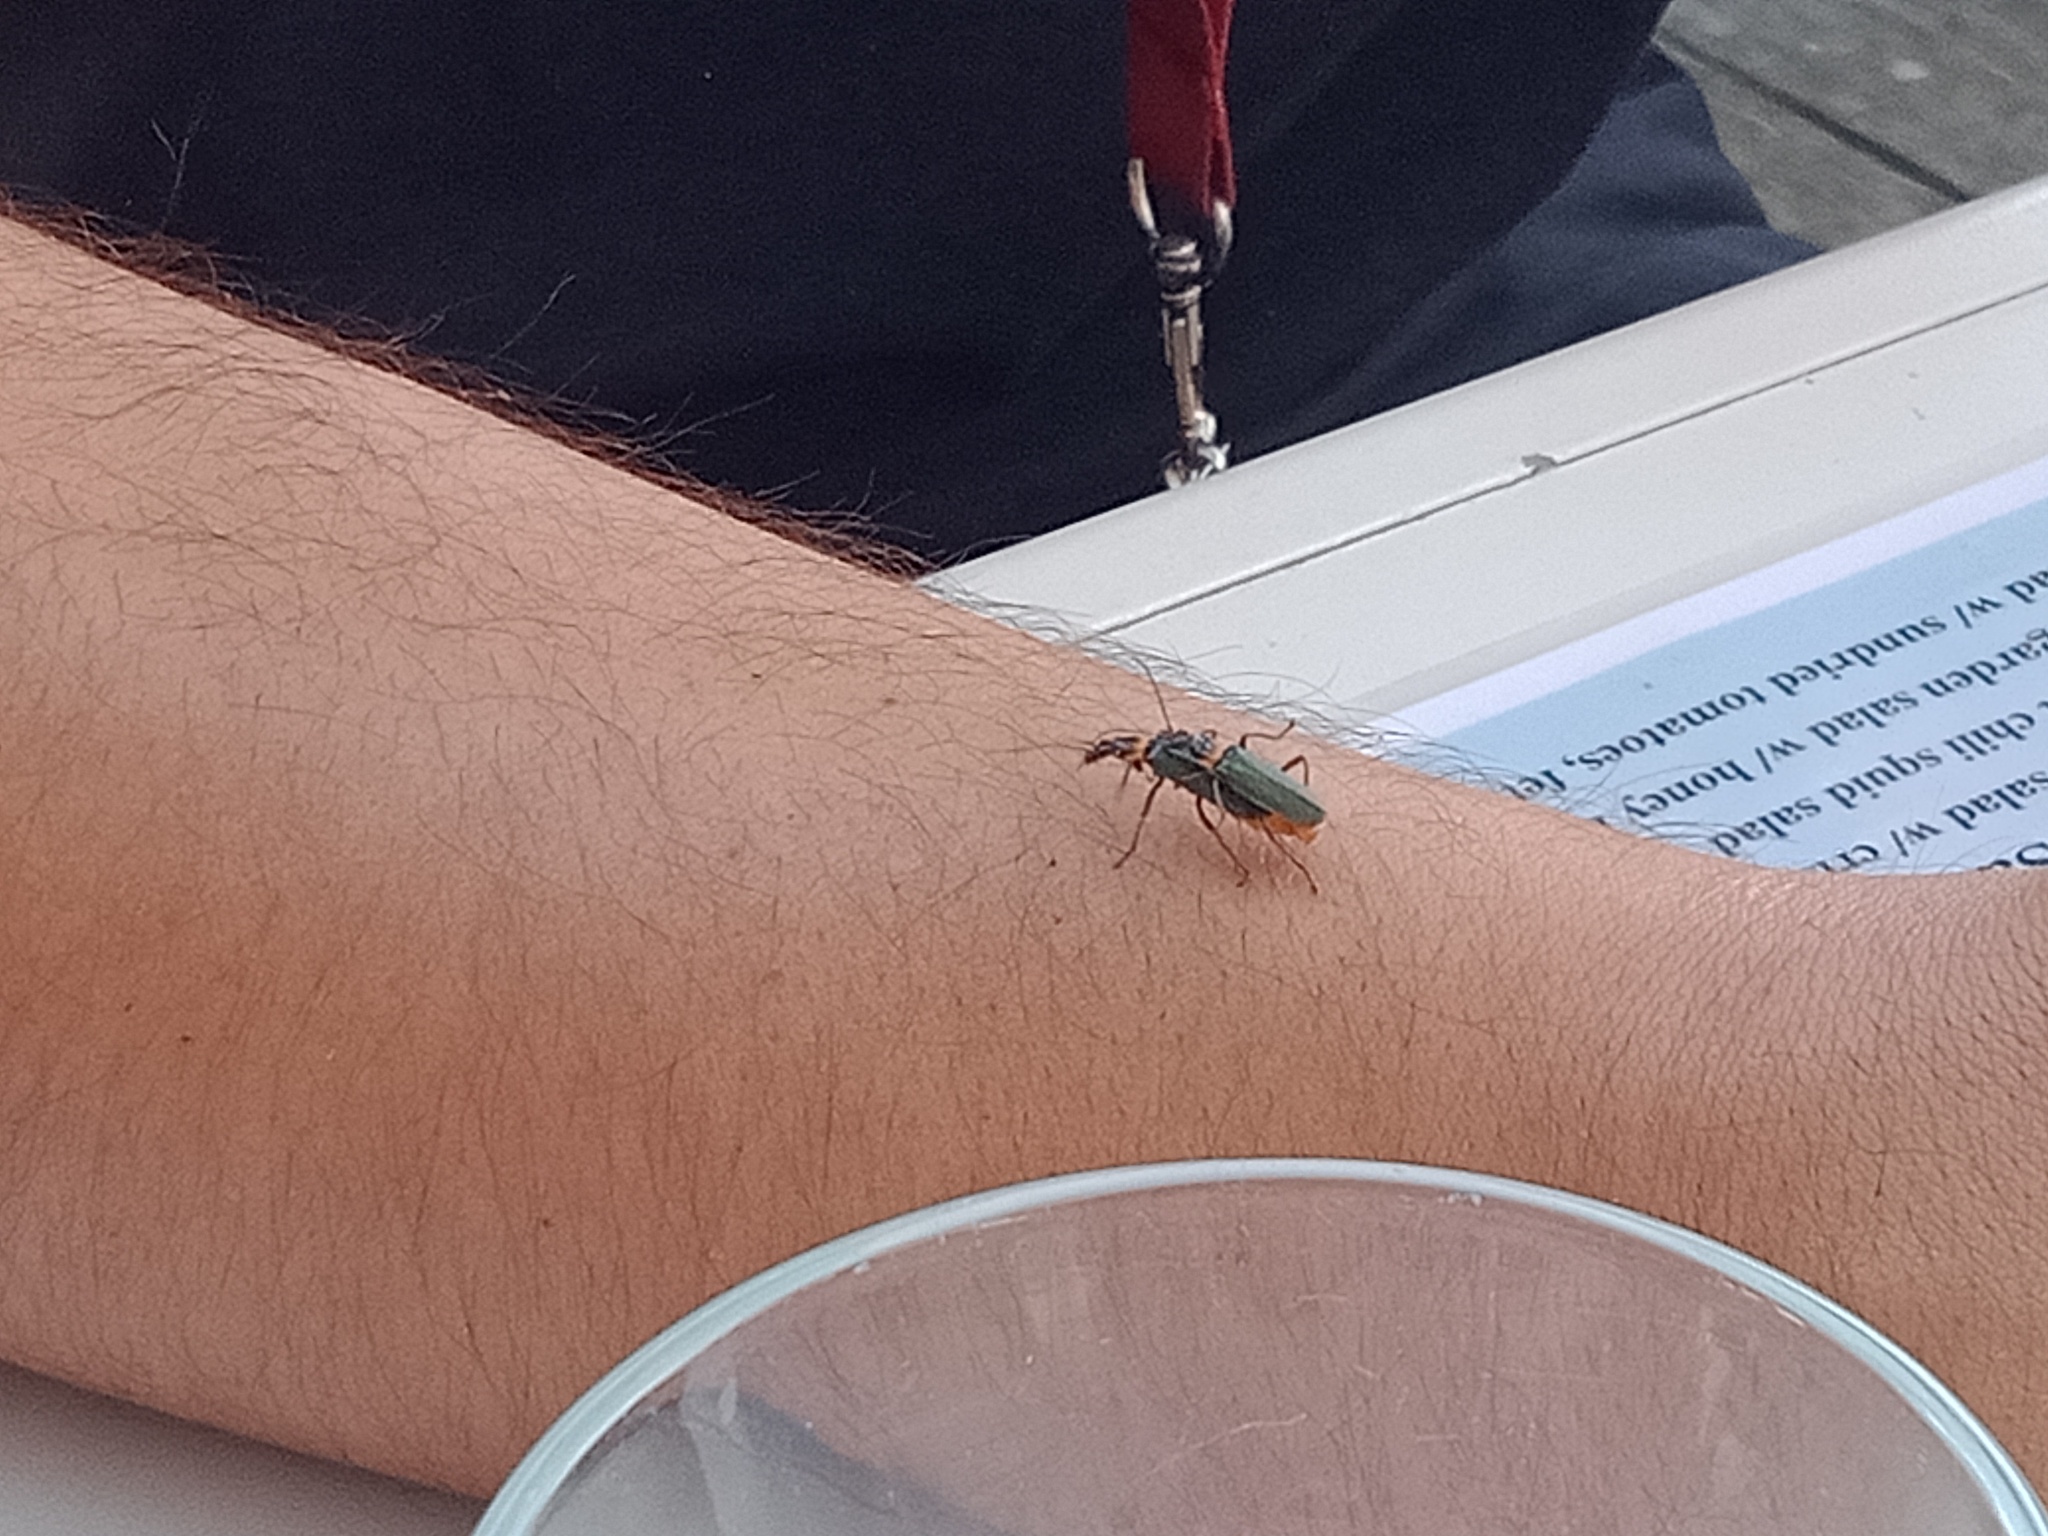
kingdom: Animalia
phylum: Arthropoda
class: Insecta
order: Coleoptera
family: Cantharidae
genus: Chauliognathus
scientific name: Chauliognathus
